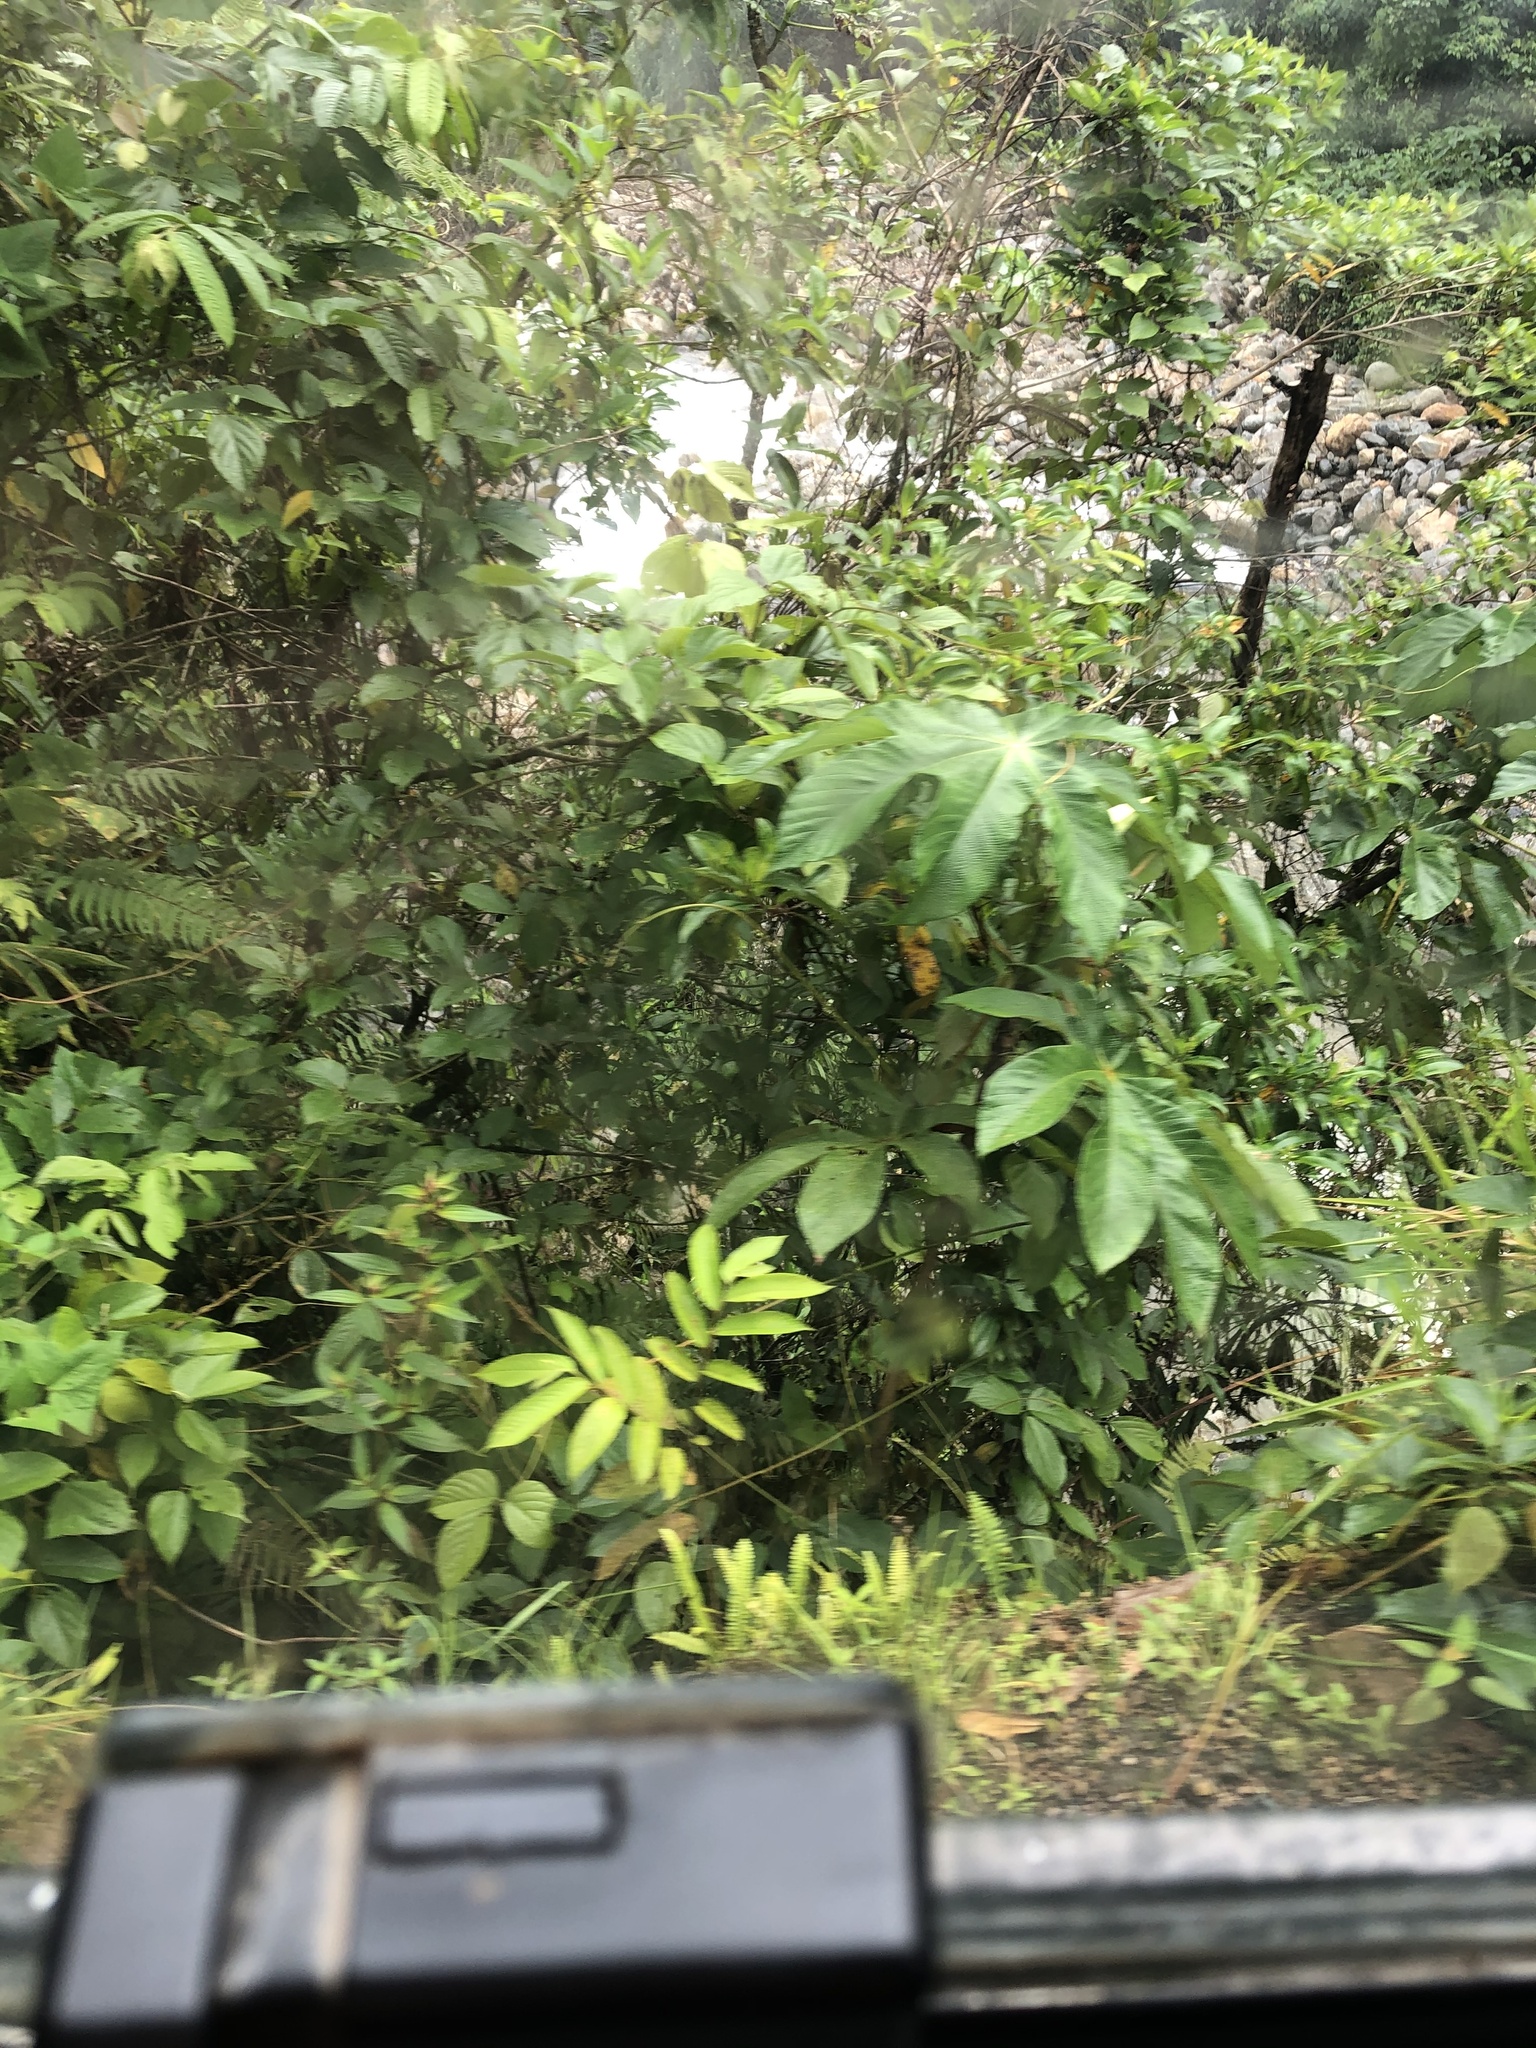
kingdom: Plantae
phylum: Tracheophyta
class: Magnoliopsida
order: Malpighiales
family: Euphorbiaceae
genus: Ricinus
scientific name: Ricinus communis
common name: Castor-oil-plant
